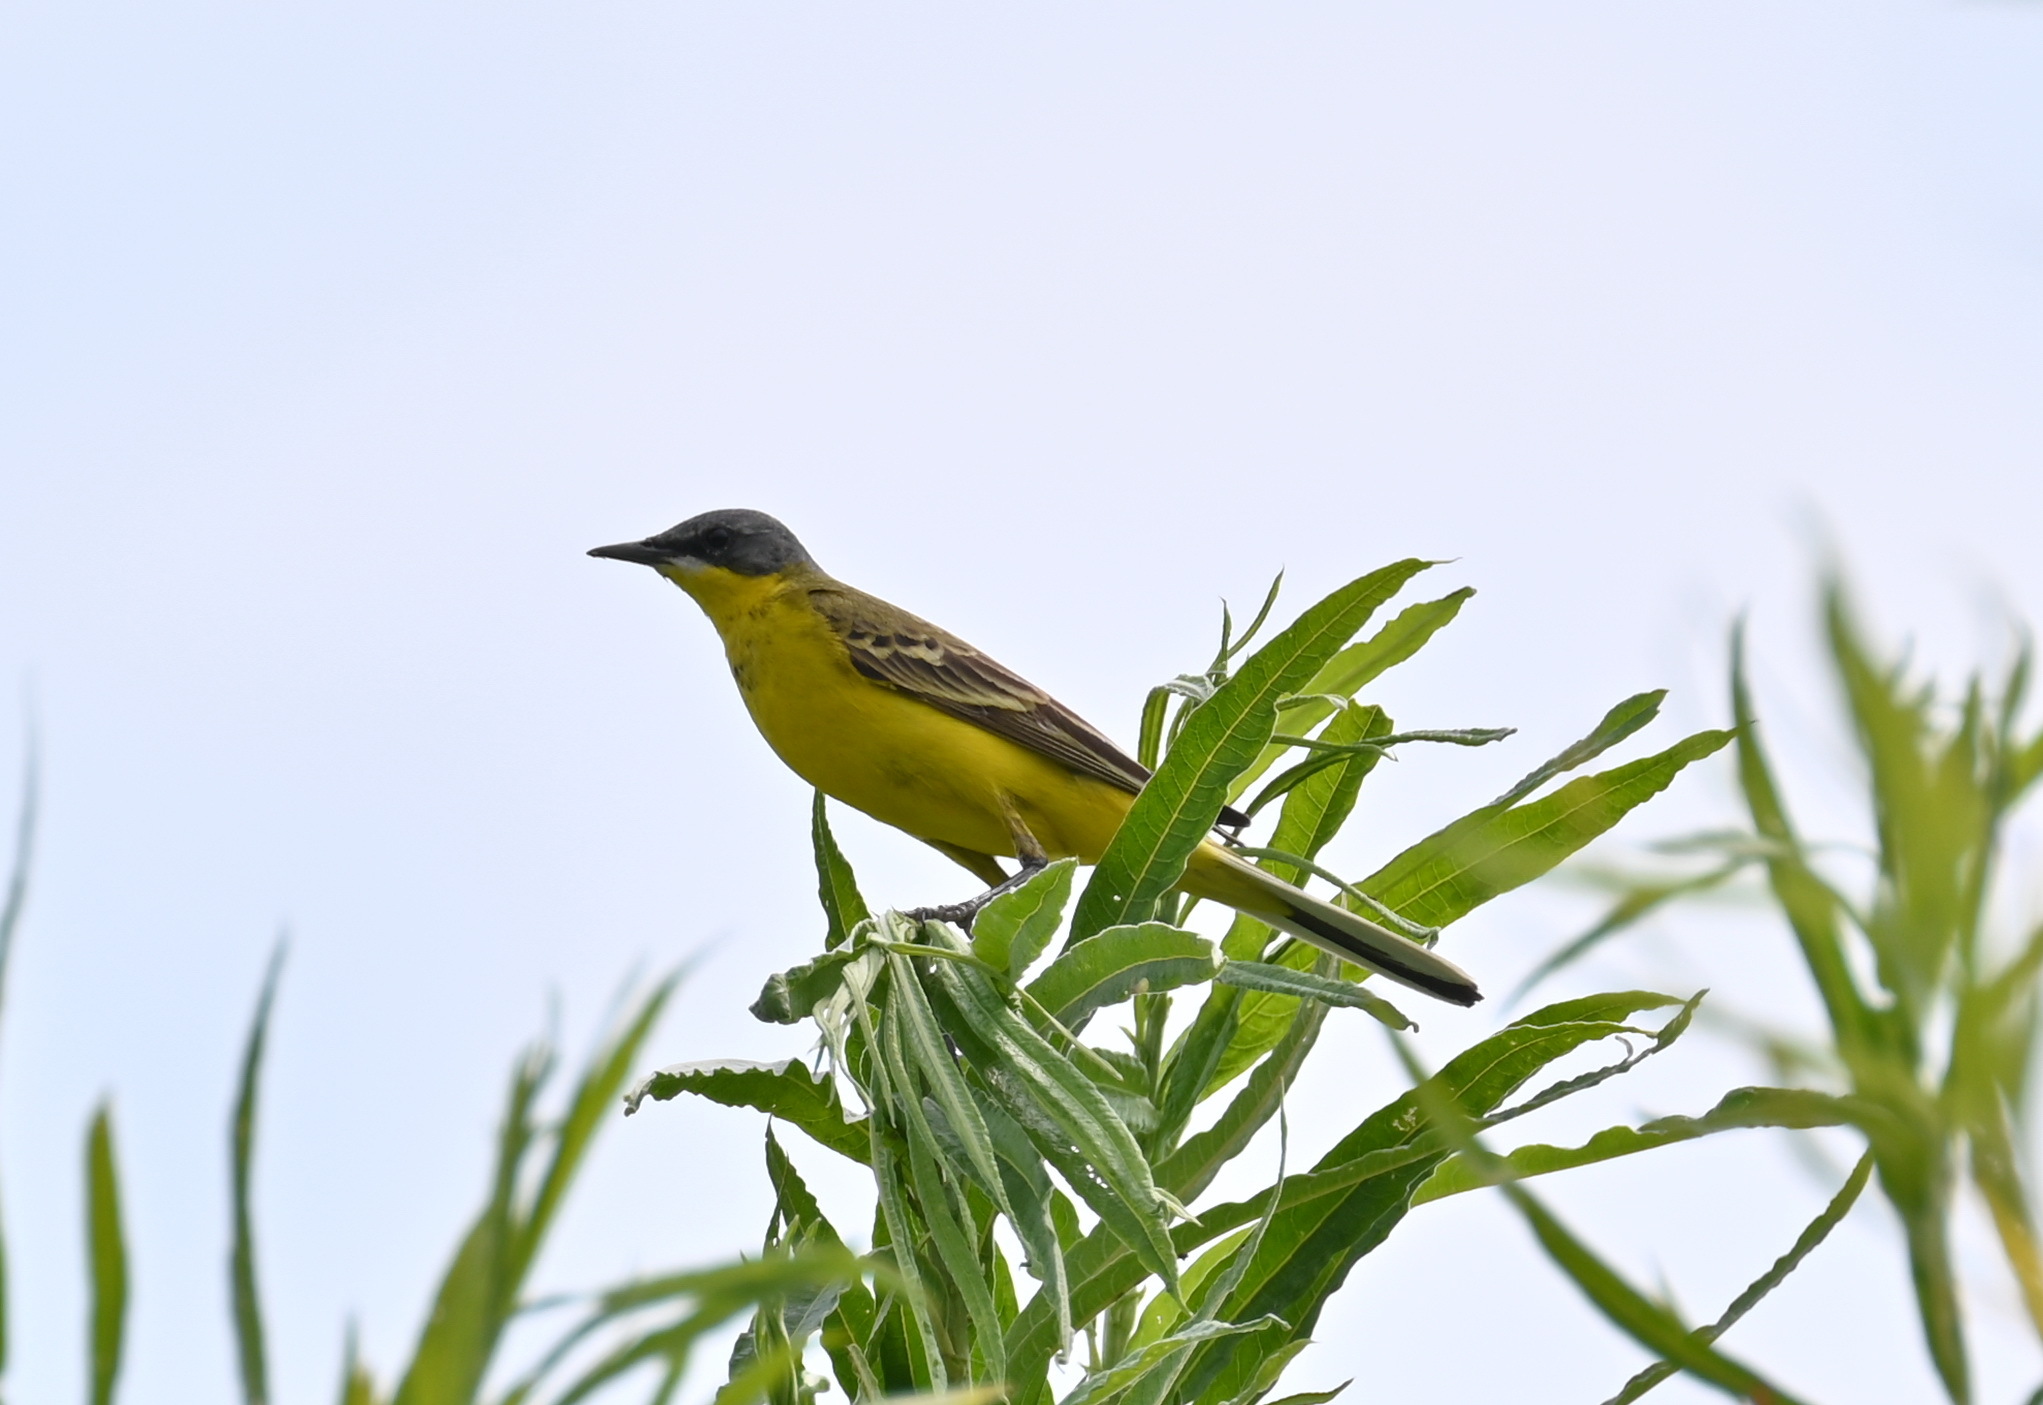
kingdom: Animalia
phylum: Chordata
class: Aves
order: Passeriformes
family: Motacillidae
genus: Motacilla
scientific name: Motacilla flava
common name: Western yellow wagtail
